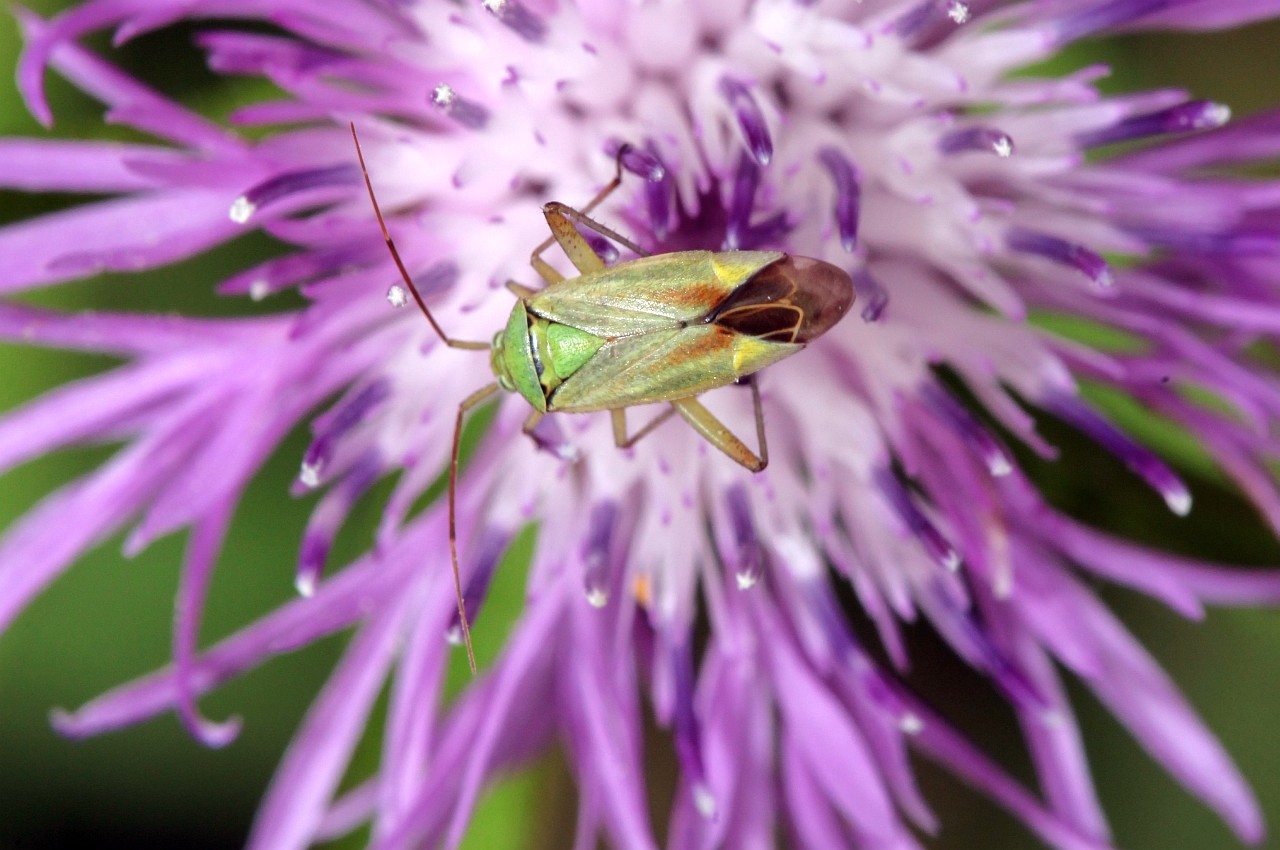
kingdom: Animalia
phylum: Arthropoda
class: Insecta
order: Hemiptera
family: Miridae
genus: Closterotomus
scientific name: Closterotomus norvegicus
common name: Plant bug
